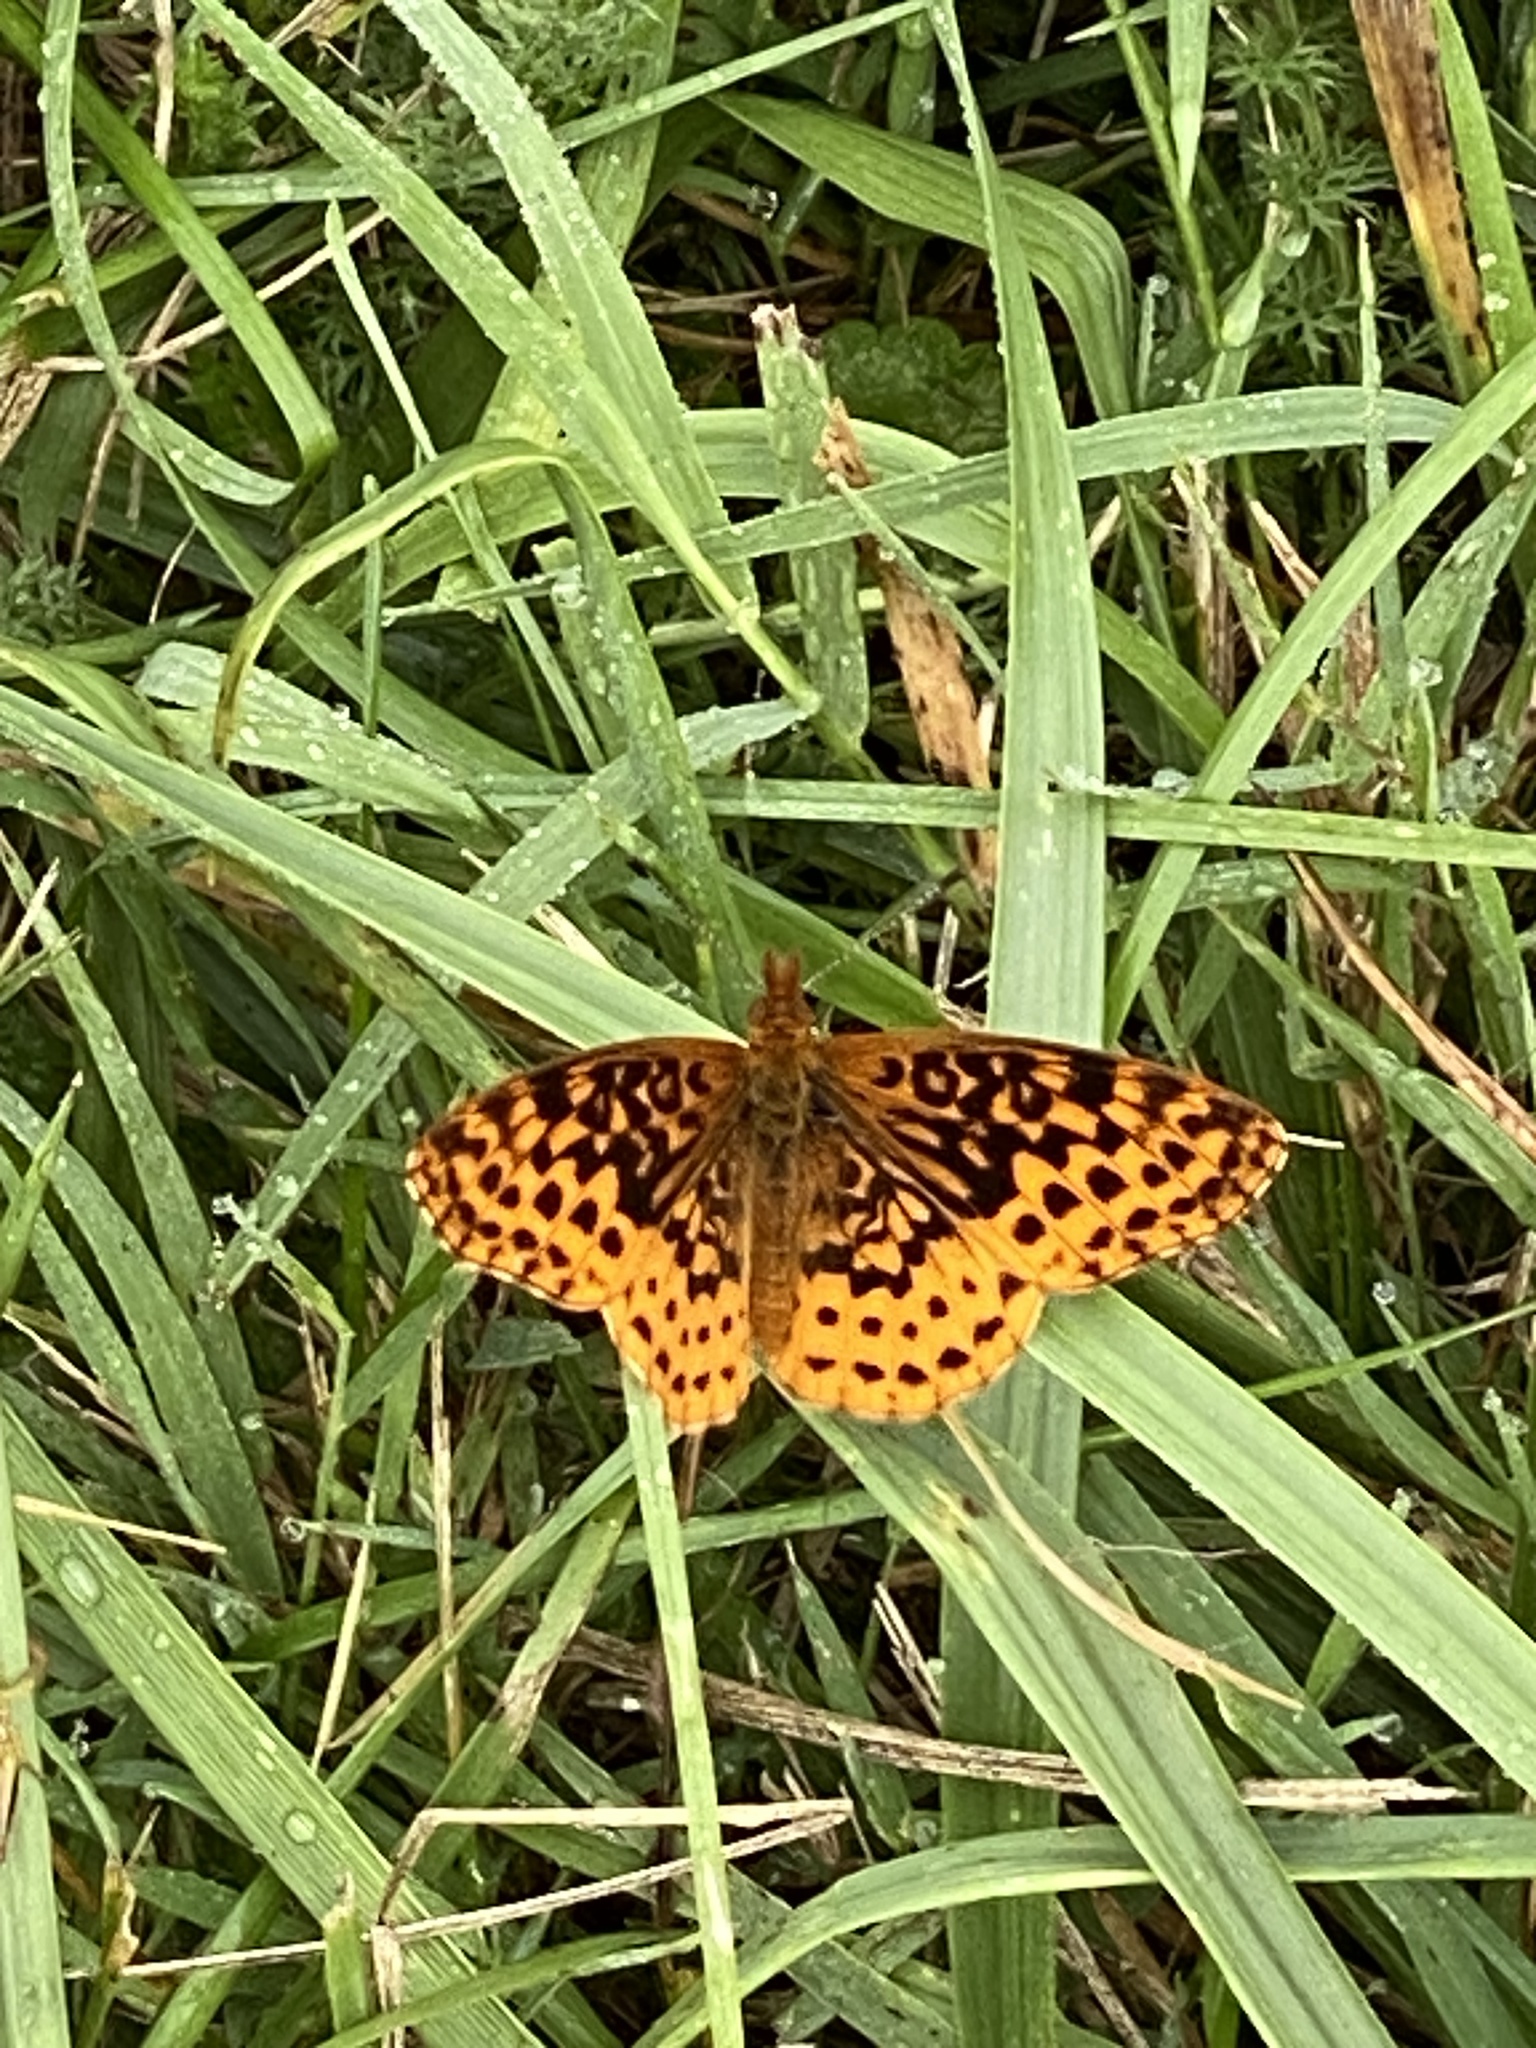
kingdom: Animalia
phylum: Arthropoda
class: Insecta
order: Lepidoptera
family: Nymphalidae
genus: Clossiana
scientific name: Clossiana toddi
